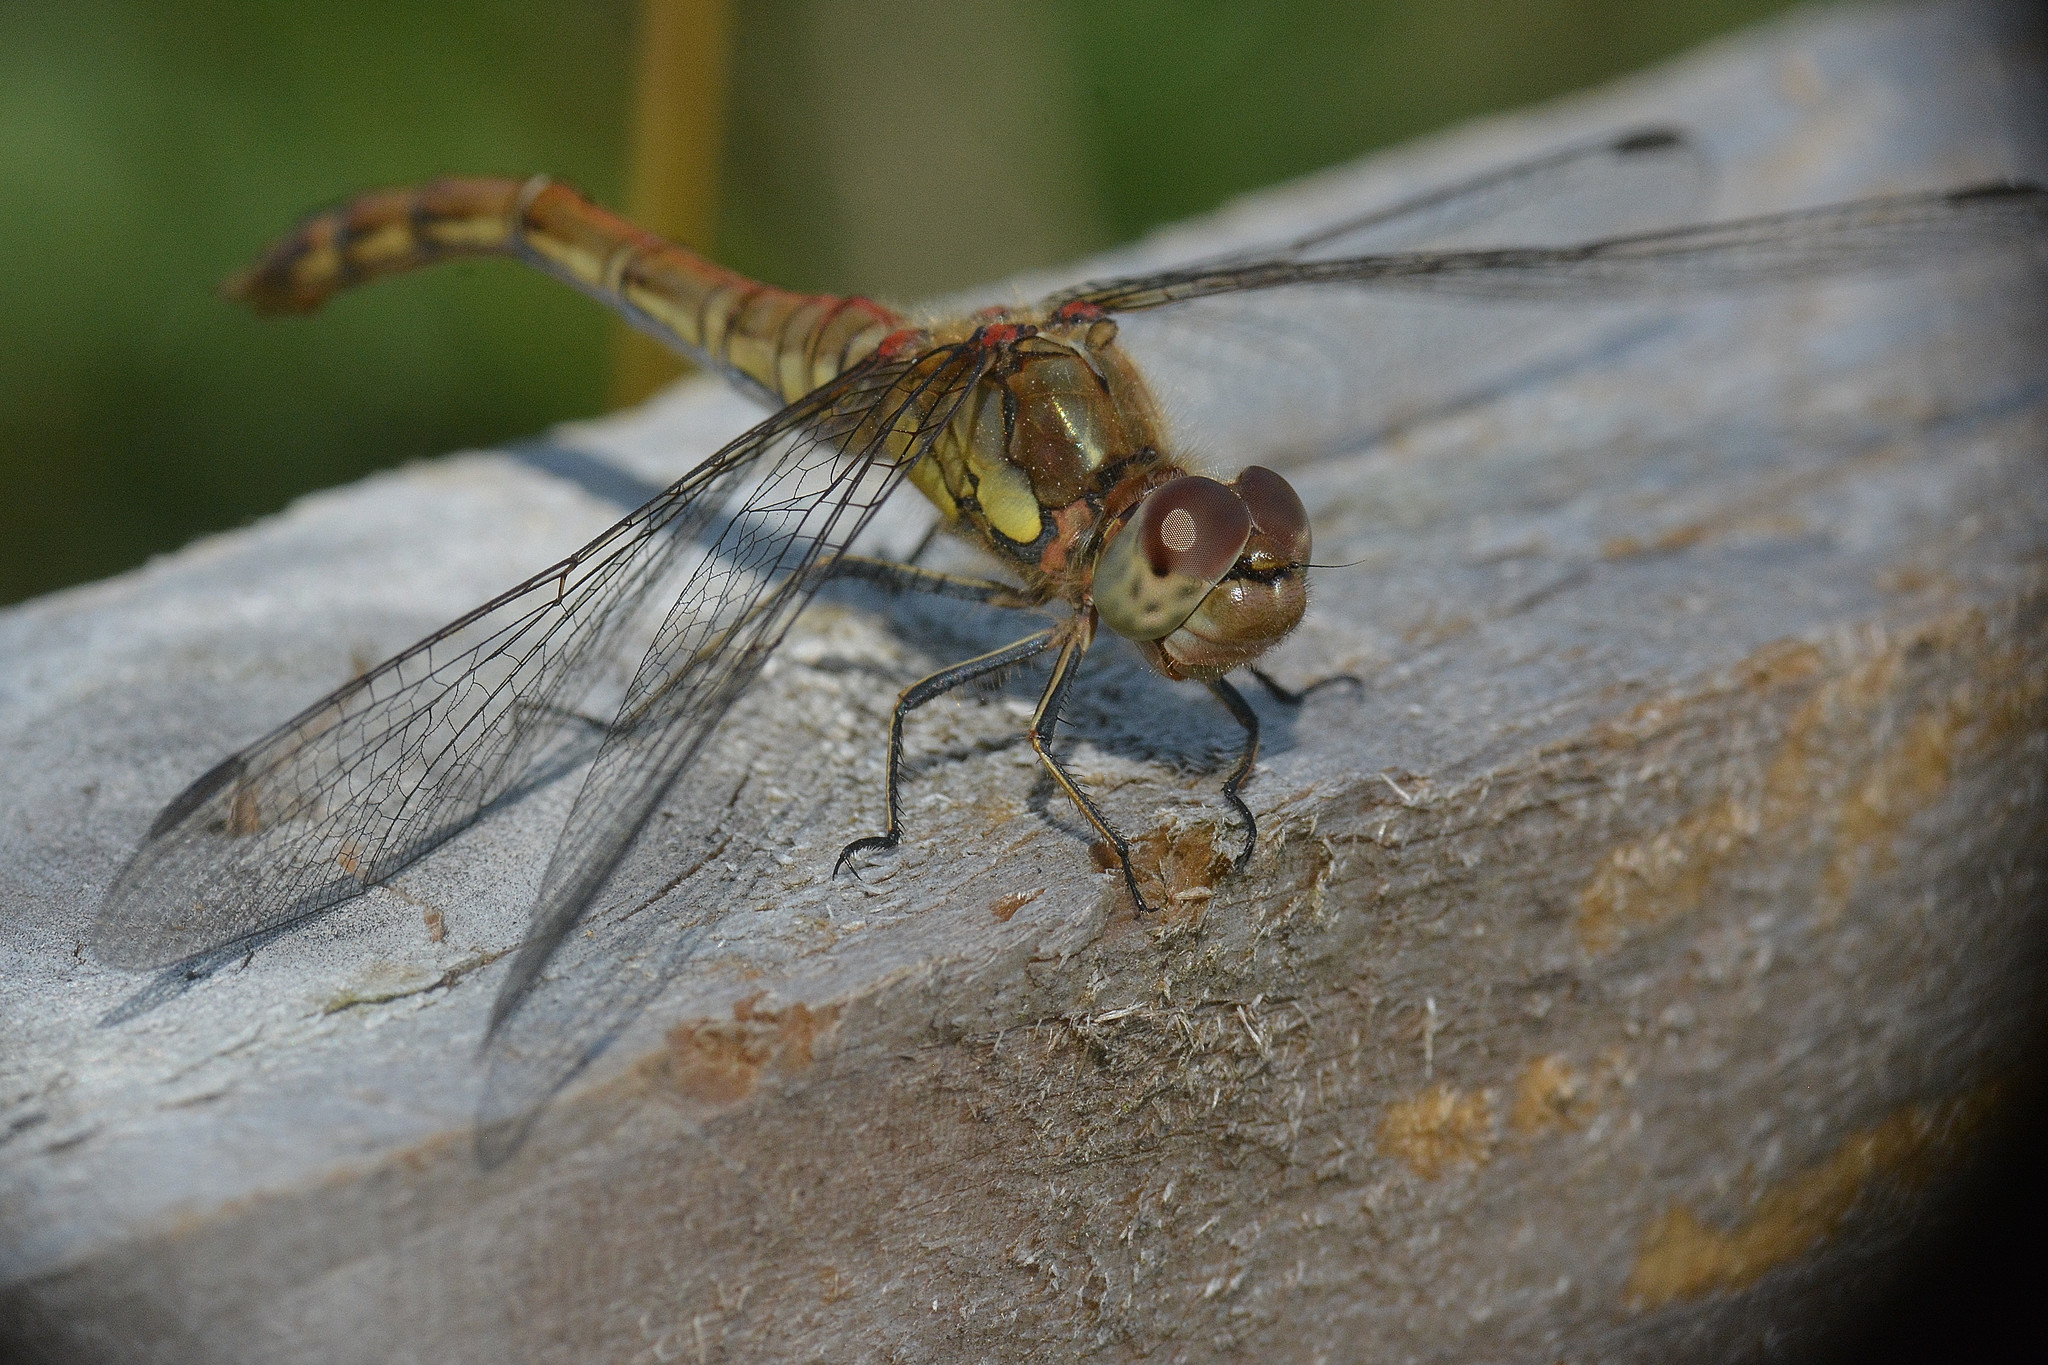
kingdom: Animalia
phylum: Arthropoda
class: Insecta
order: Odonata
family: Libellulidae
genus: Sympetrum
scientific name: Sympetrum striolatum
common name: Common darter
